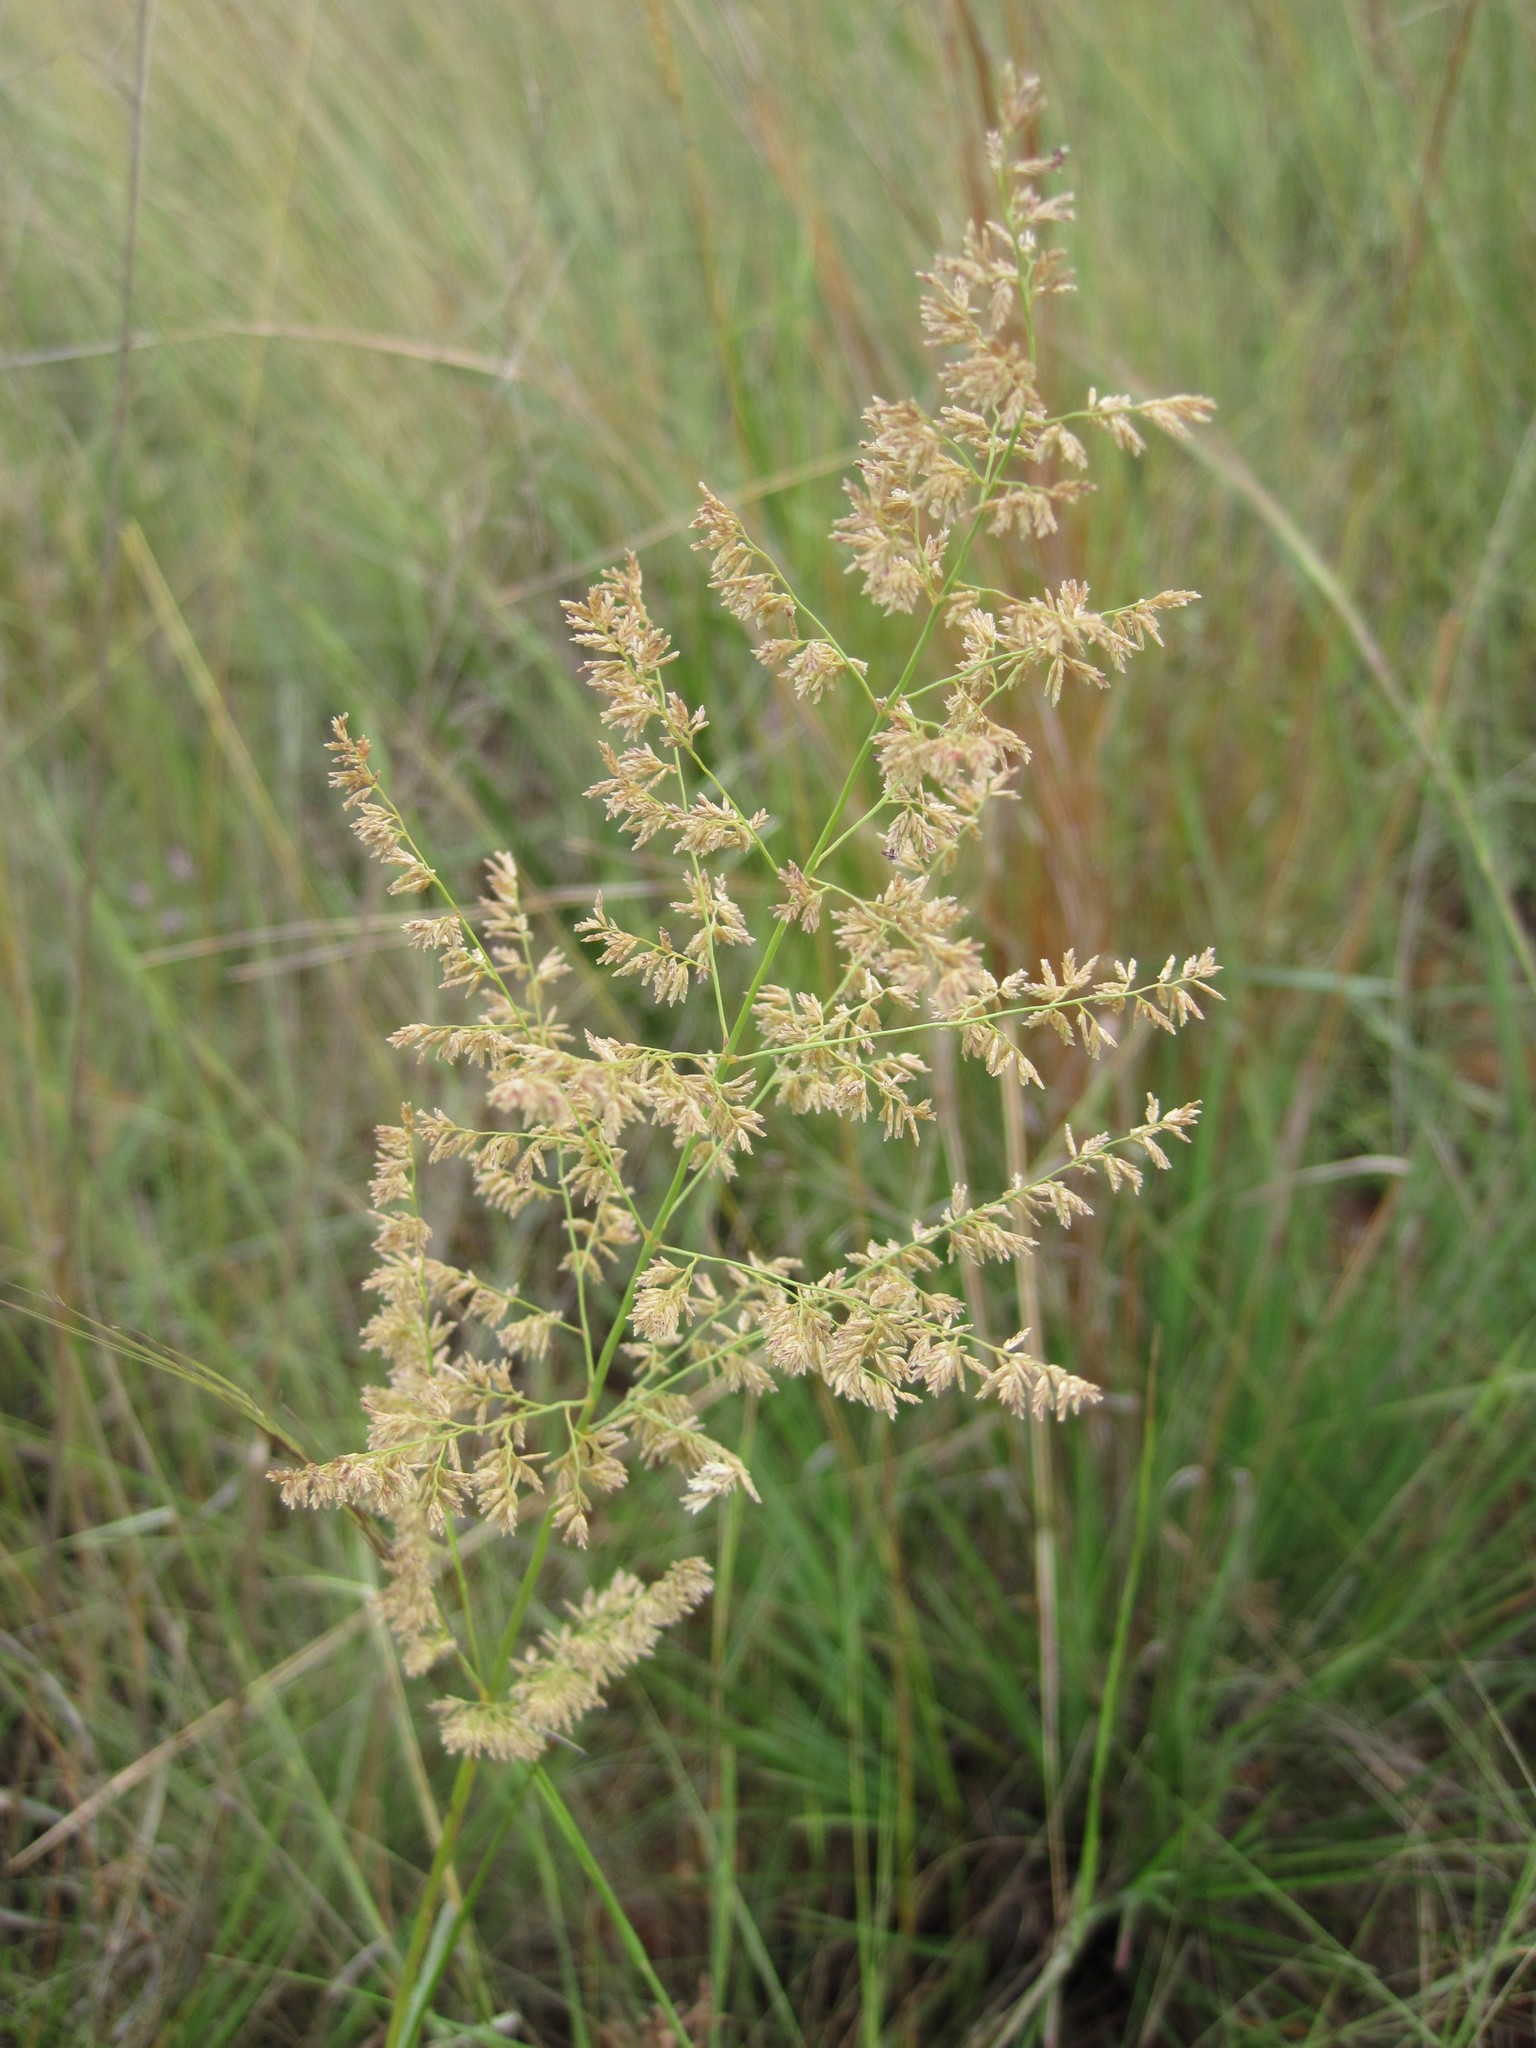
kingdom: Plantae
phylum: Tracheophyta
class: Liliopsida
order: Poales
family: Poaceae
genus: Eragrostis
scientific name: Eragrostis gummiflua
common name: Gum grass
